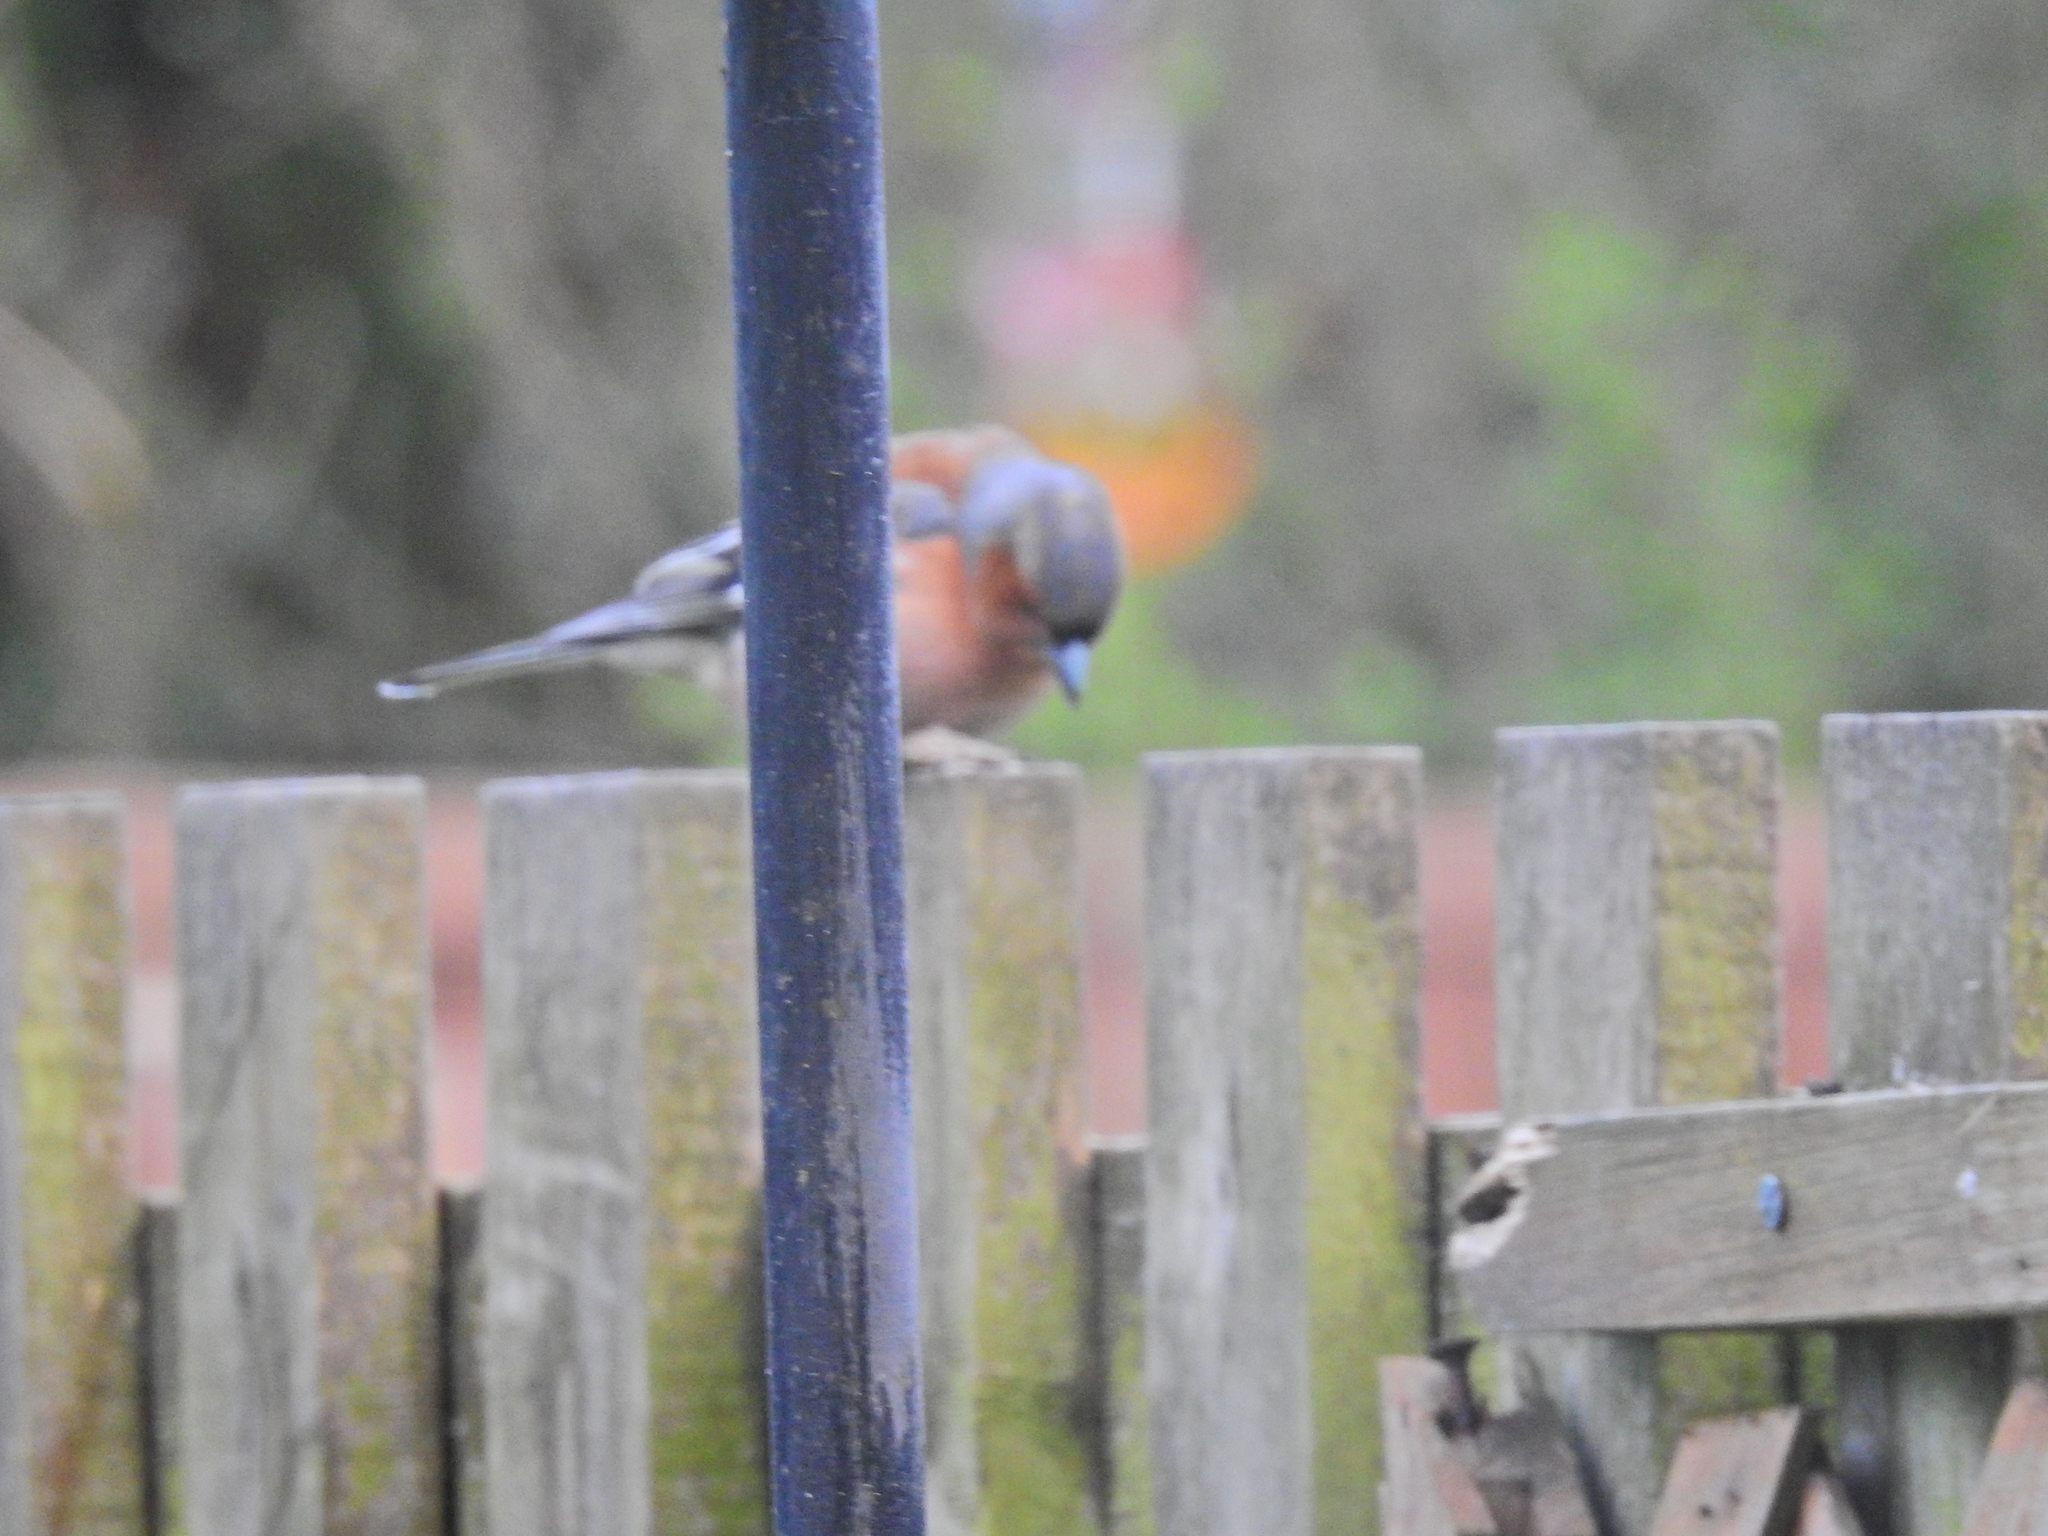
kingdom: Animalia
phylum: Chordata
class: Aves
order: Passeriformes
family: Fringillidae
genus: Fringilla
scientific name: Fringilla coelebs
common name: Common chaffinch
